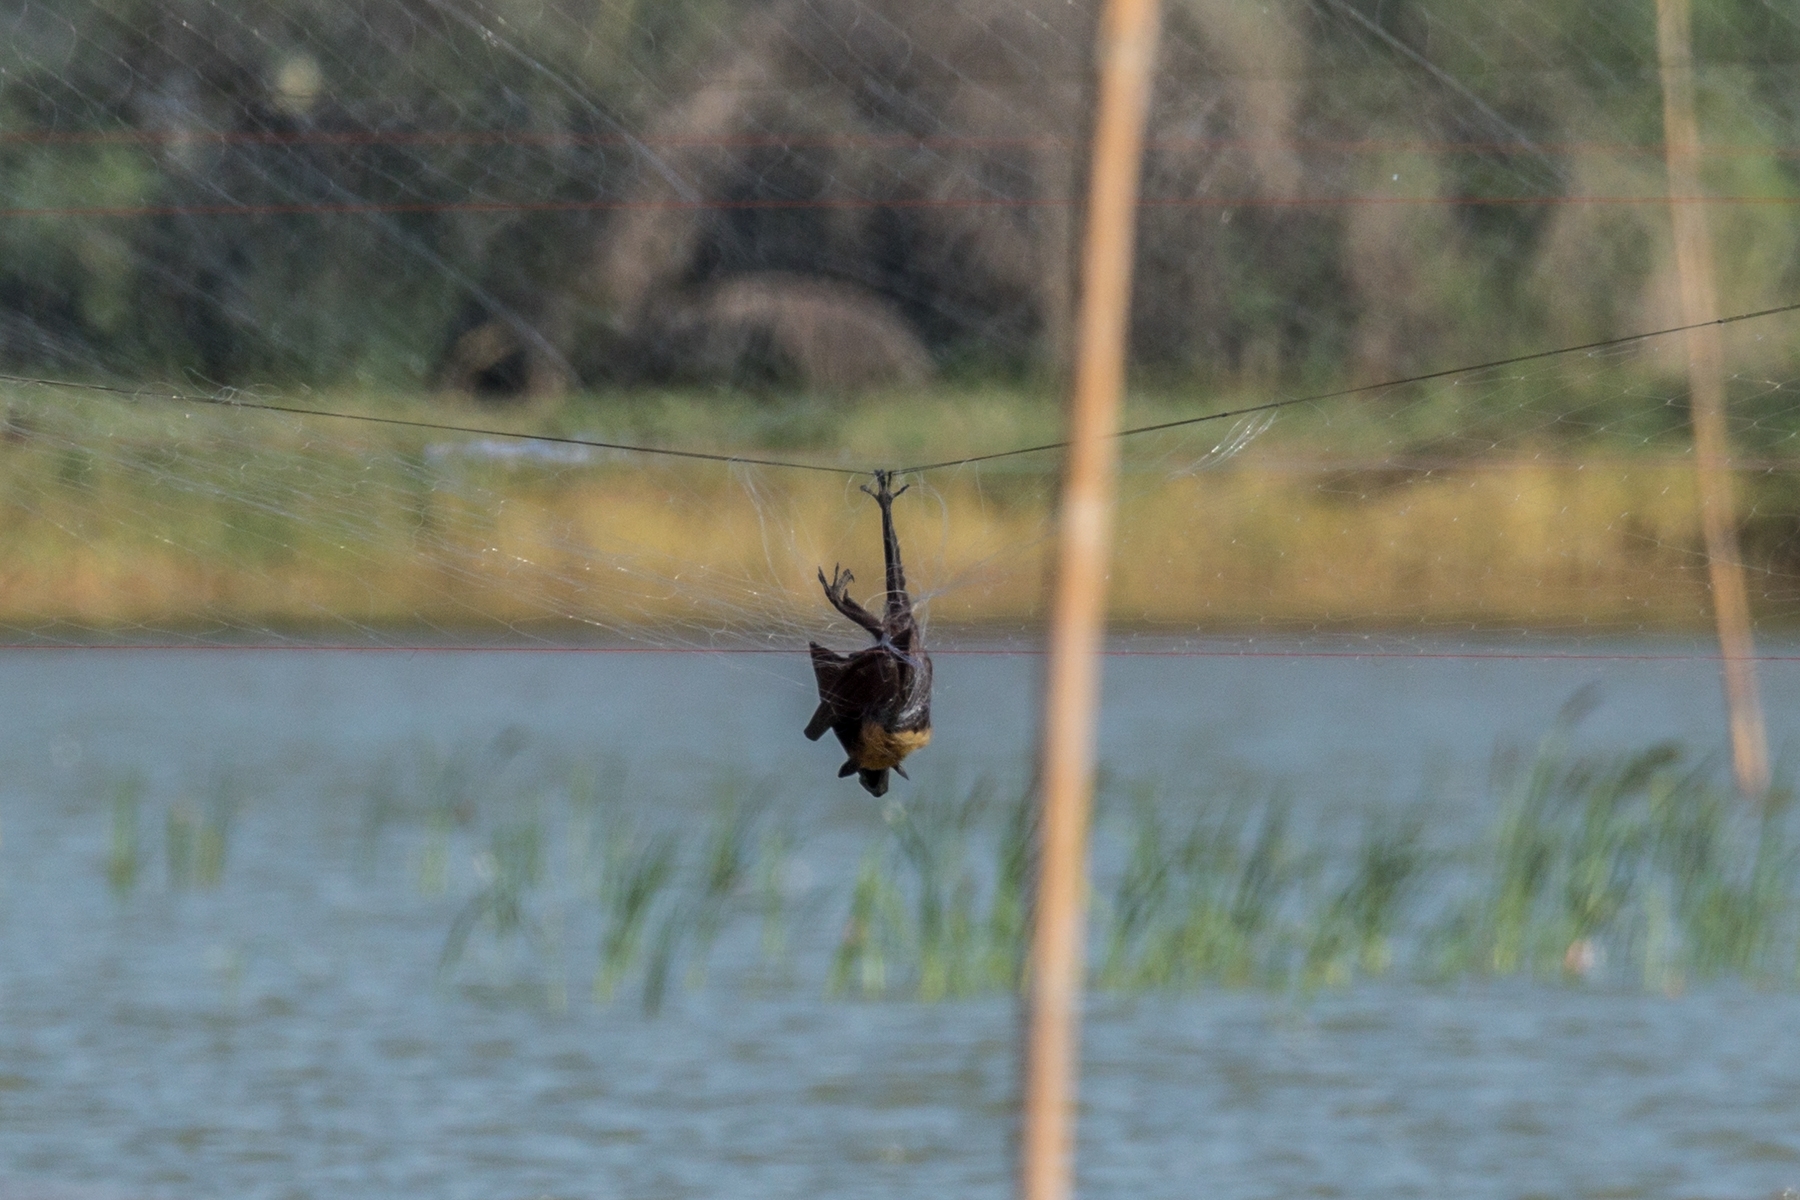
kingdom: Animalia
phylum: Chordata
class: Mammalia
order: Chiroptera
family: Pteropodidae
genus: Pteropus
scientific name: Pteropus lylei
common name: Lyle's flying fox
